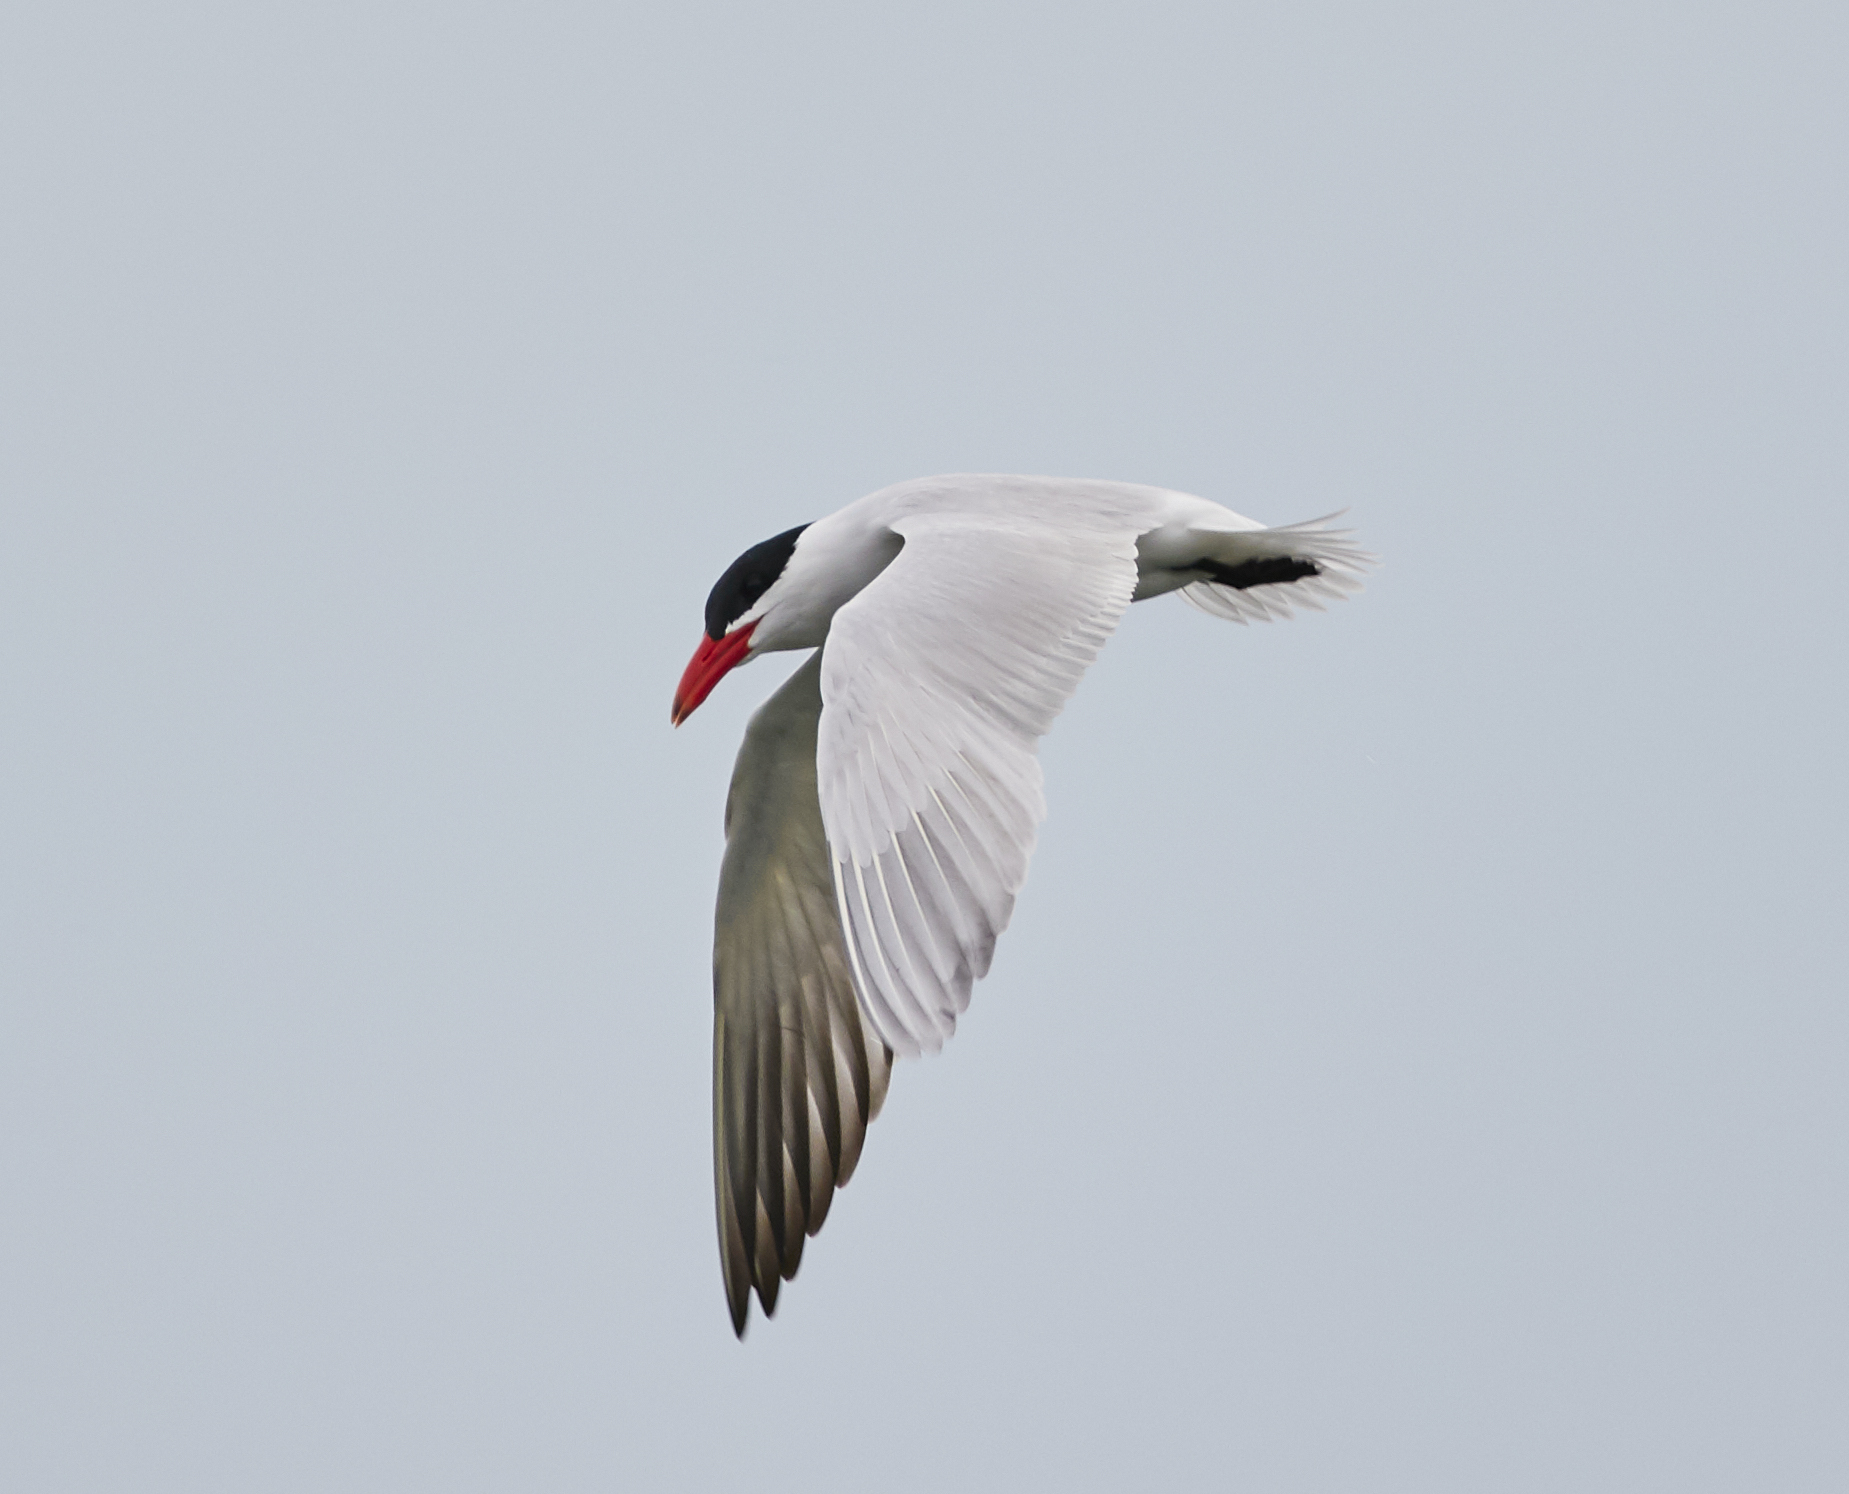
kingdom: Animalia
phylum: Chordata
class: Aves
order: Charadriiformes
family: Laridae
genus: Hydroprogne
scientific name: Hydroprogne caspia
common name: Caspian tern
